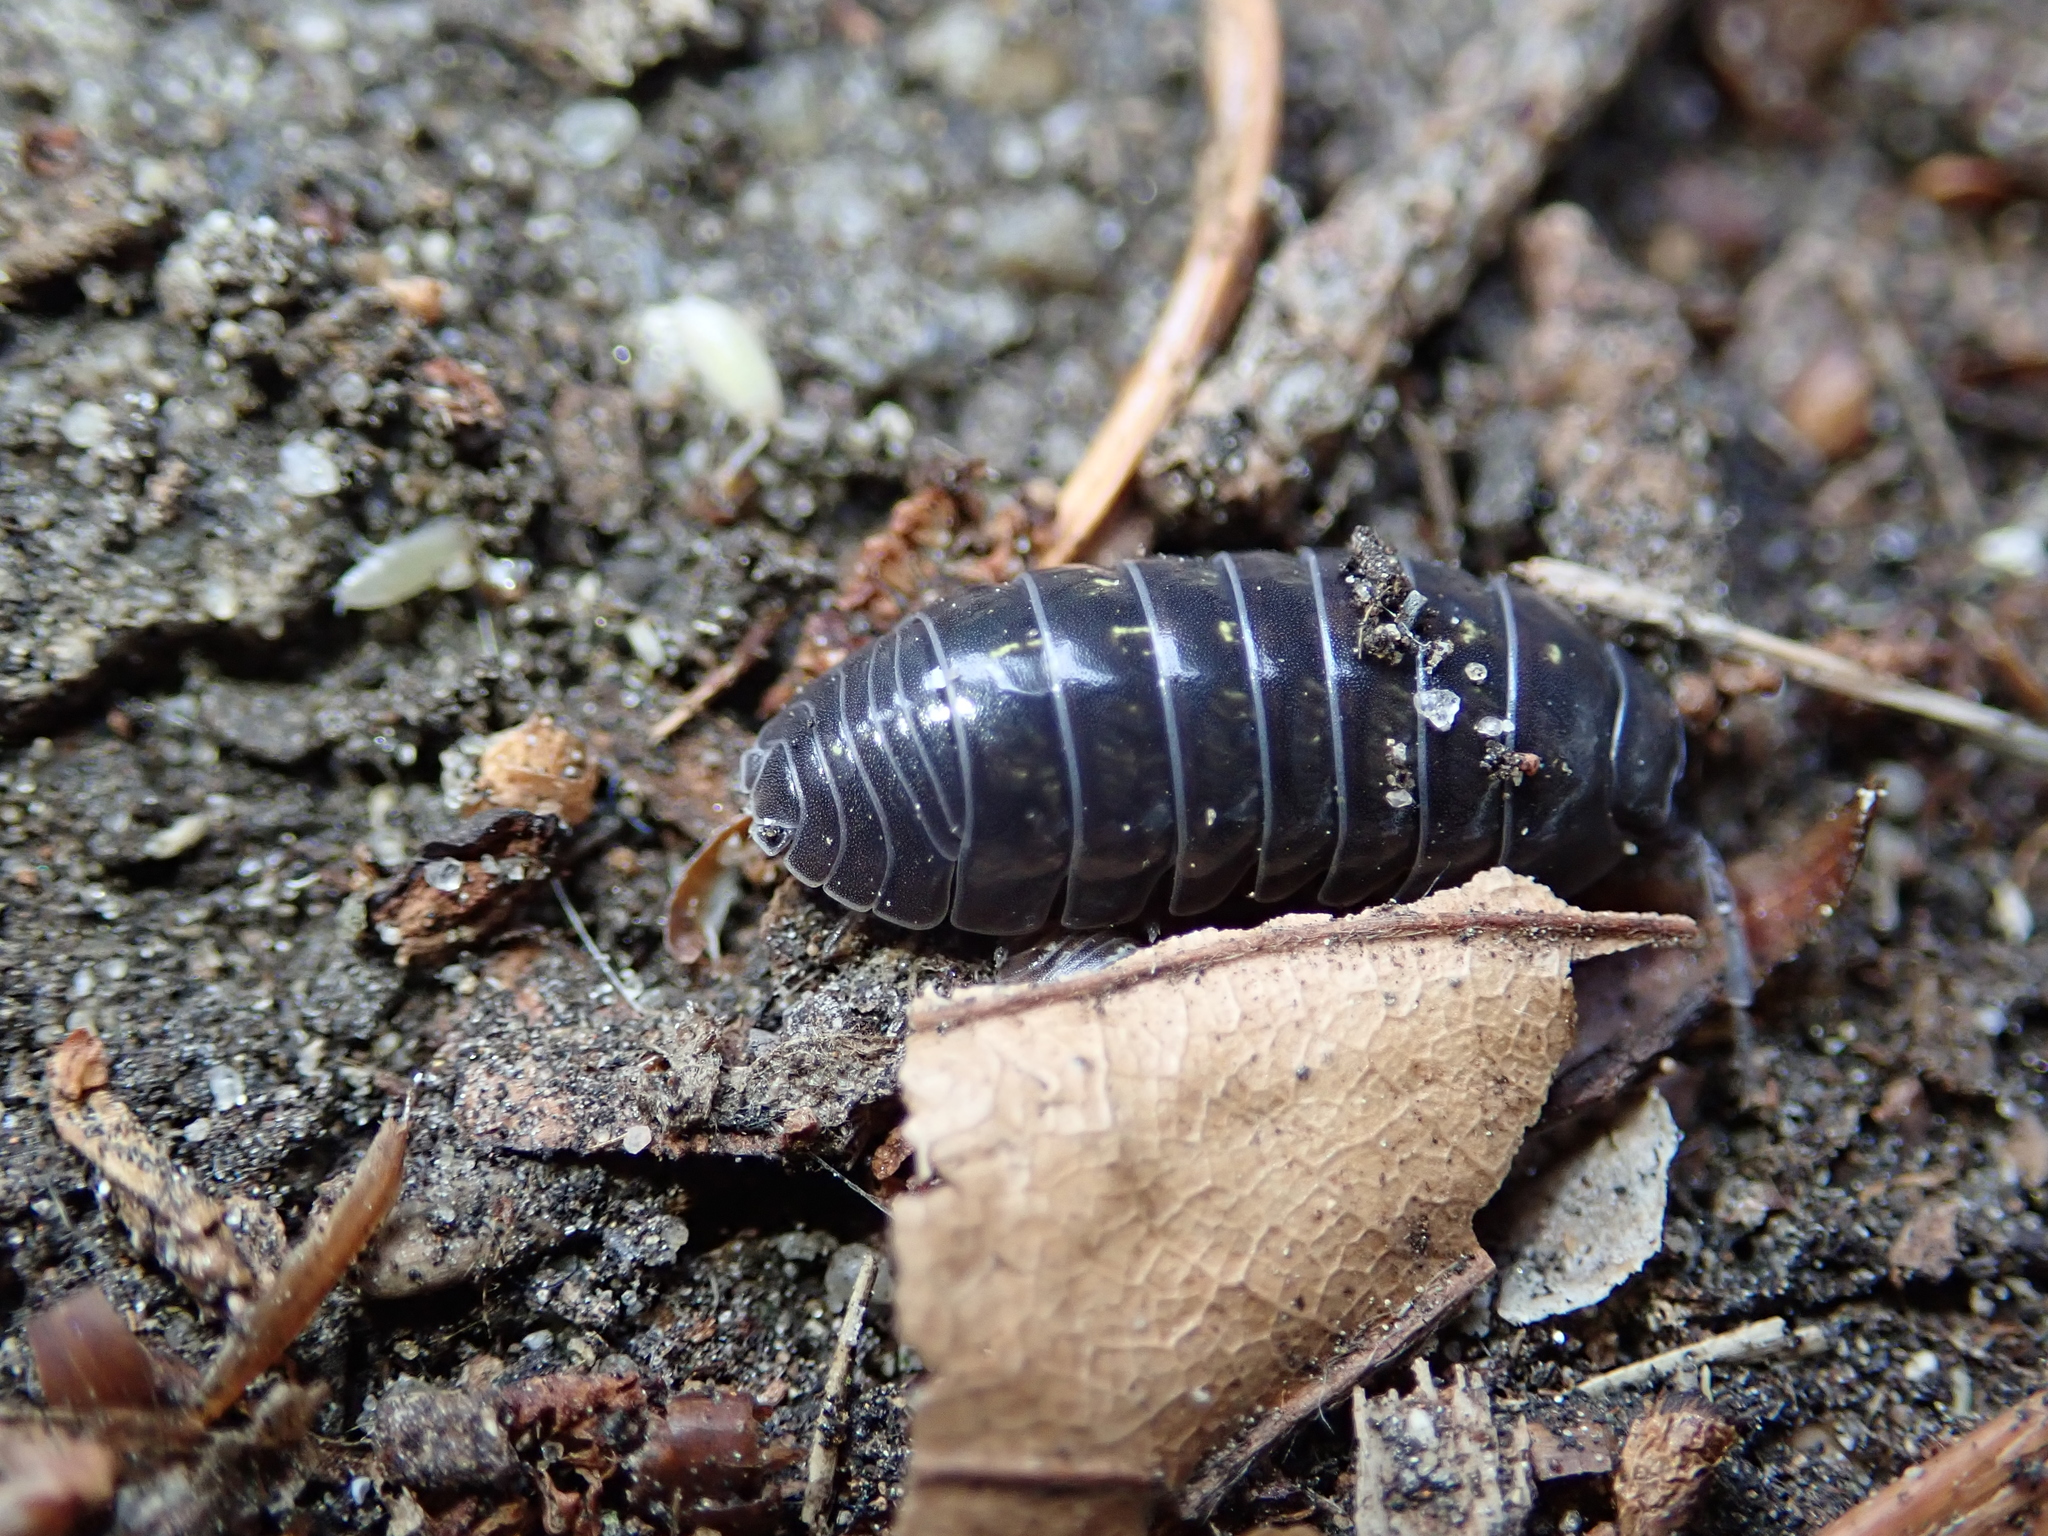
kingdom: Animalia
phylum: Arthropoda
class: Malacostraca
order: Isopoda
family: Armadillidiidae
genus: Armadillidium
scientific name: Armadillidium vulgare
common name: Common pill woodlouse
